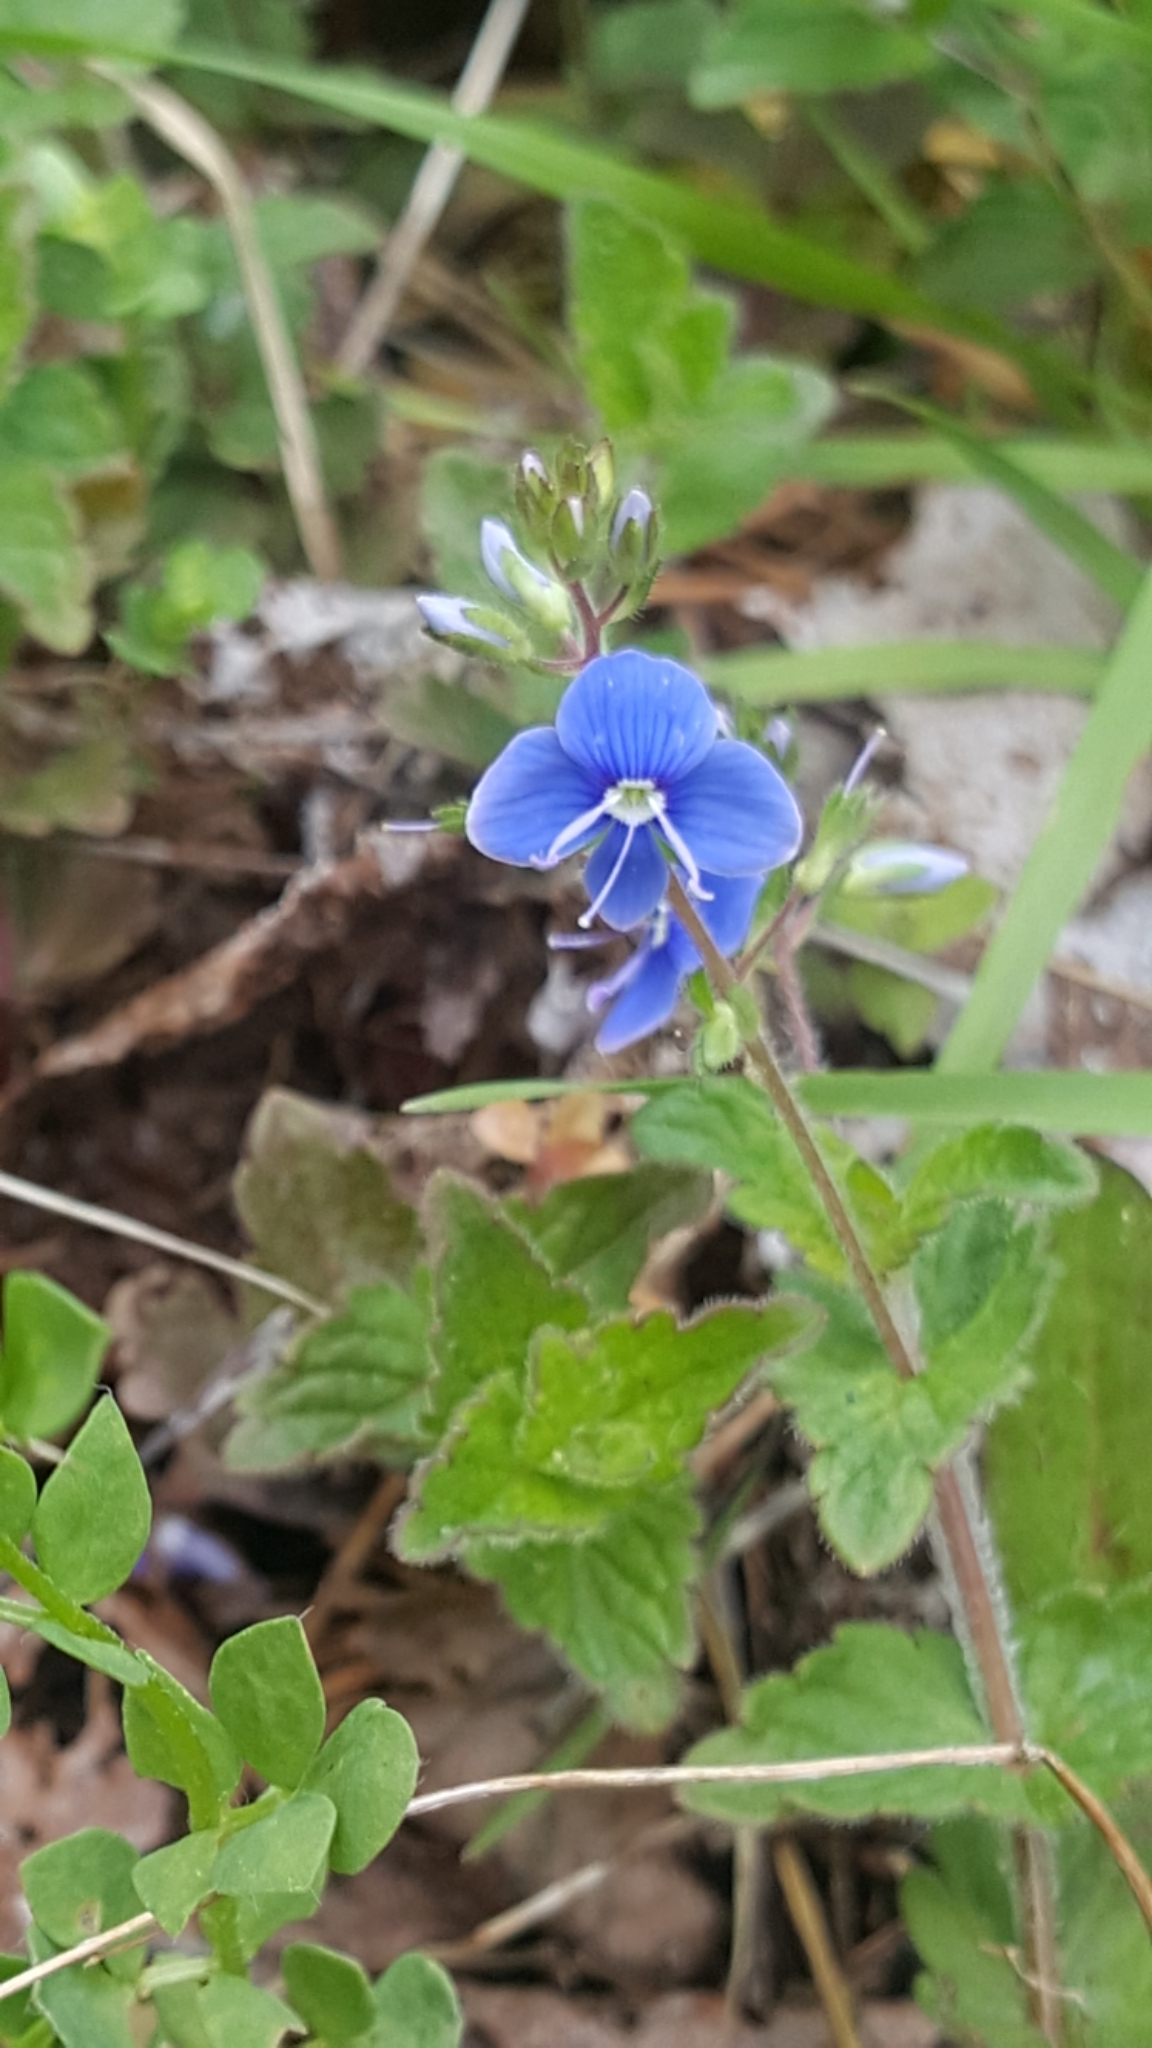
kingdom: Plantae
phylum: Tracheophyta
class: Magnoliopsida
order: Lamiales
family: Plantaginaceae
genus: Veronica
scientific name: Veronica chamaedrys
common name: Germander speedwell
